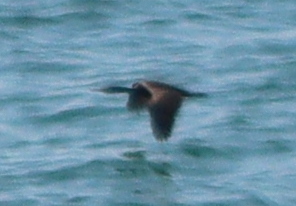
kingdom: Animalia
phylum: Chordata
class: Aves
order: Suliformes
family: Phalacrocoracidae
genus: Phalacrocorax
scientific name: Phalacrocorax aristotelis
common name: European shag
